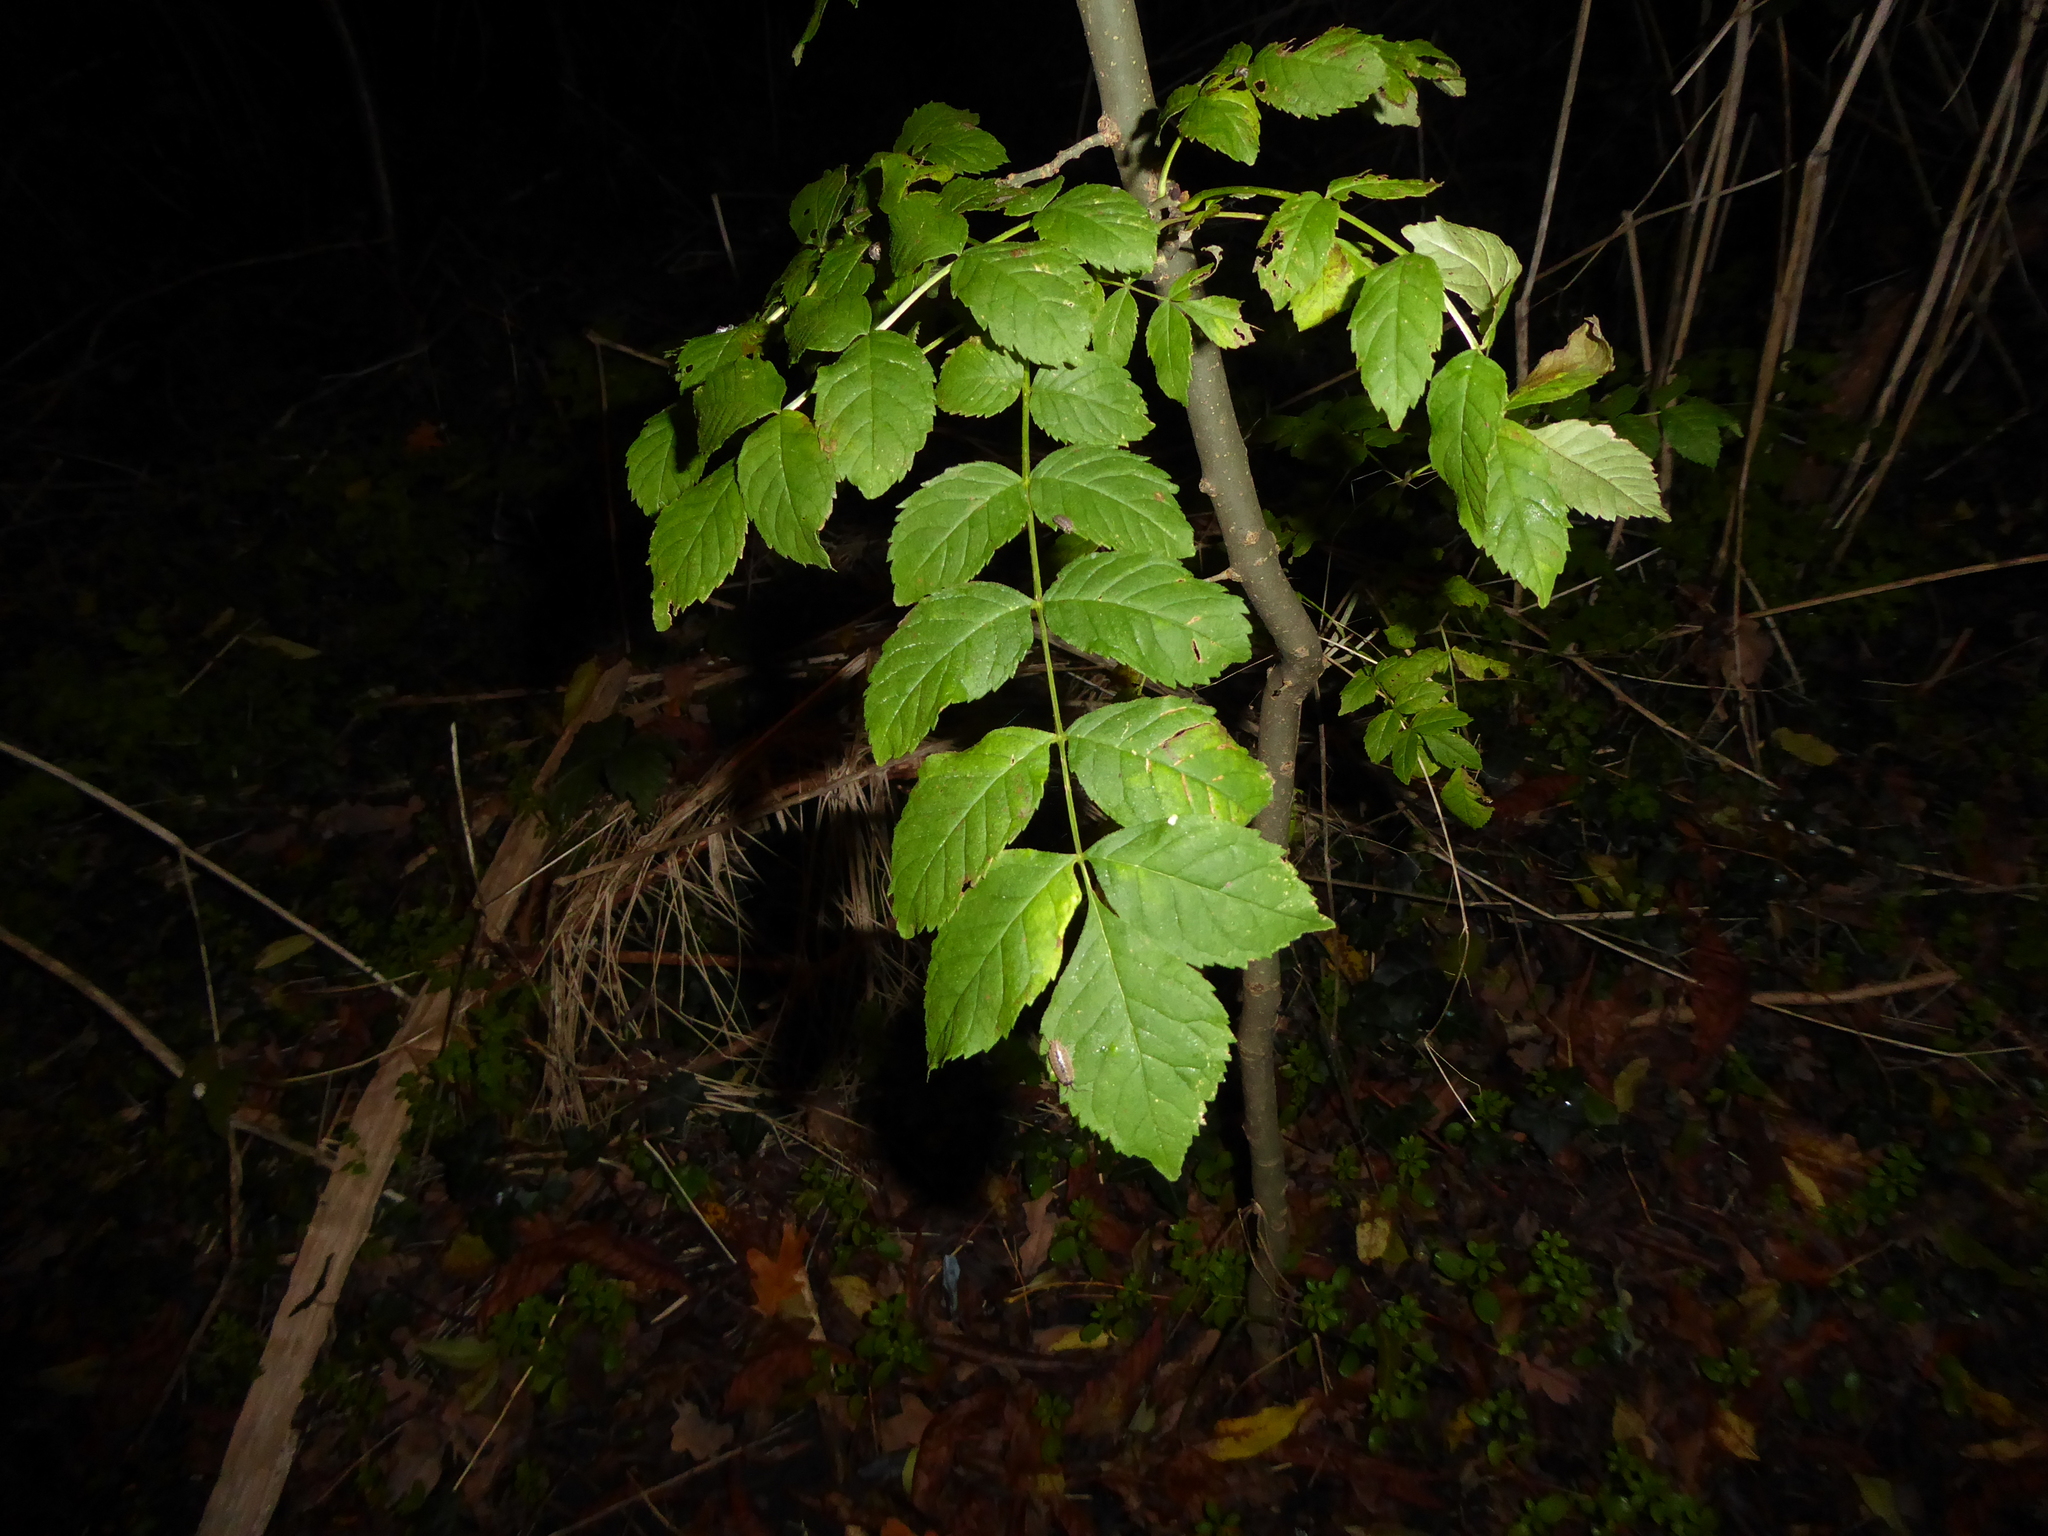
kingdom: Plantae
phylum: Tracheophyta
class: Magnoliopsida
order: Lamiales
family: Oleaceae
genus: Fraxinus
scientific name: Fraxinus excelsior
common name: European ash
